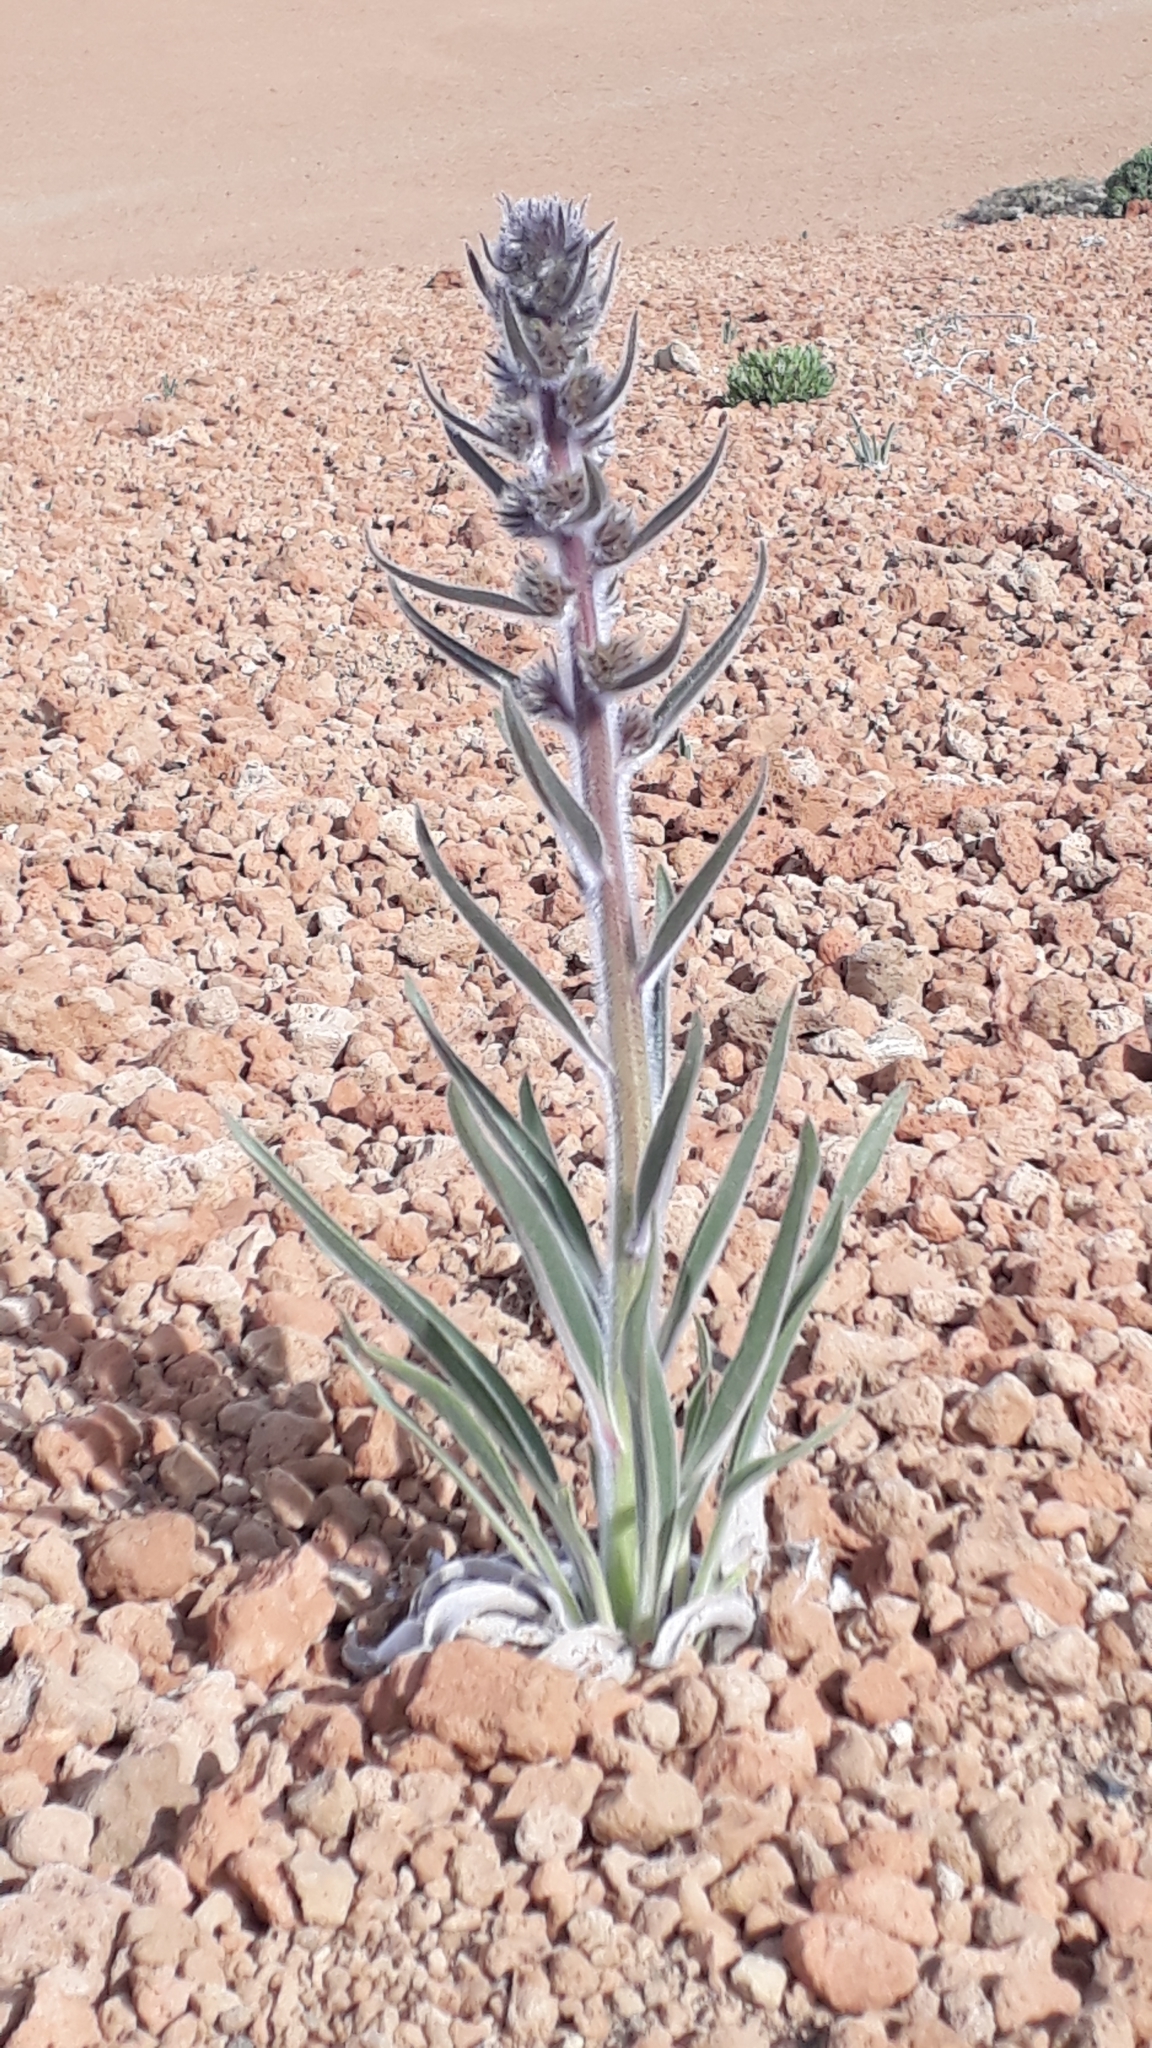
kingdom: Plantae
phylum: Tracheophyta
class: Magnoliopsida
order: Boraginales
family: Boraginaceae
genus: Echium
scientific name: Echium auberianum
